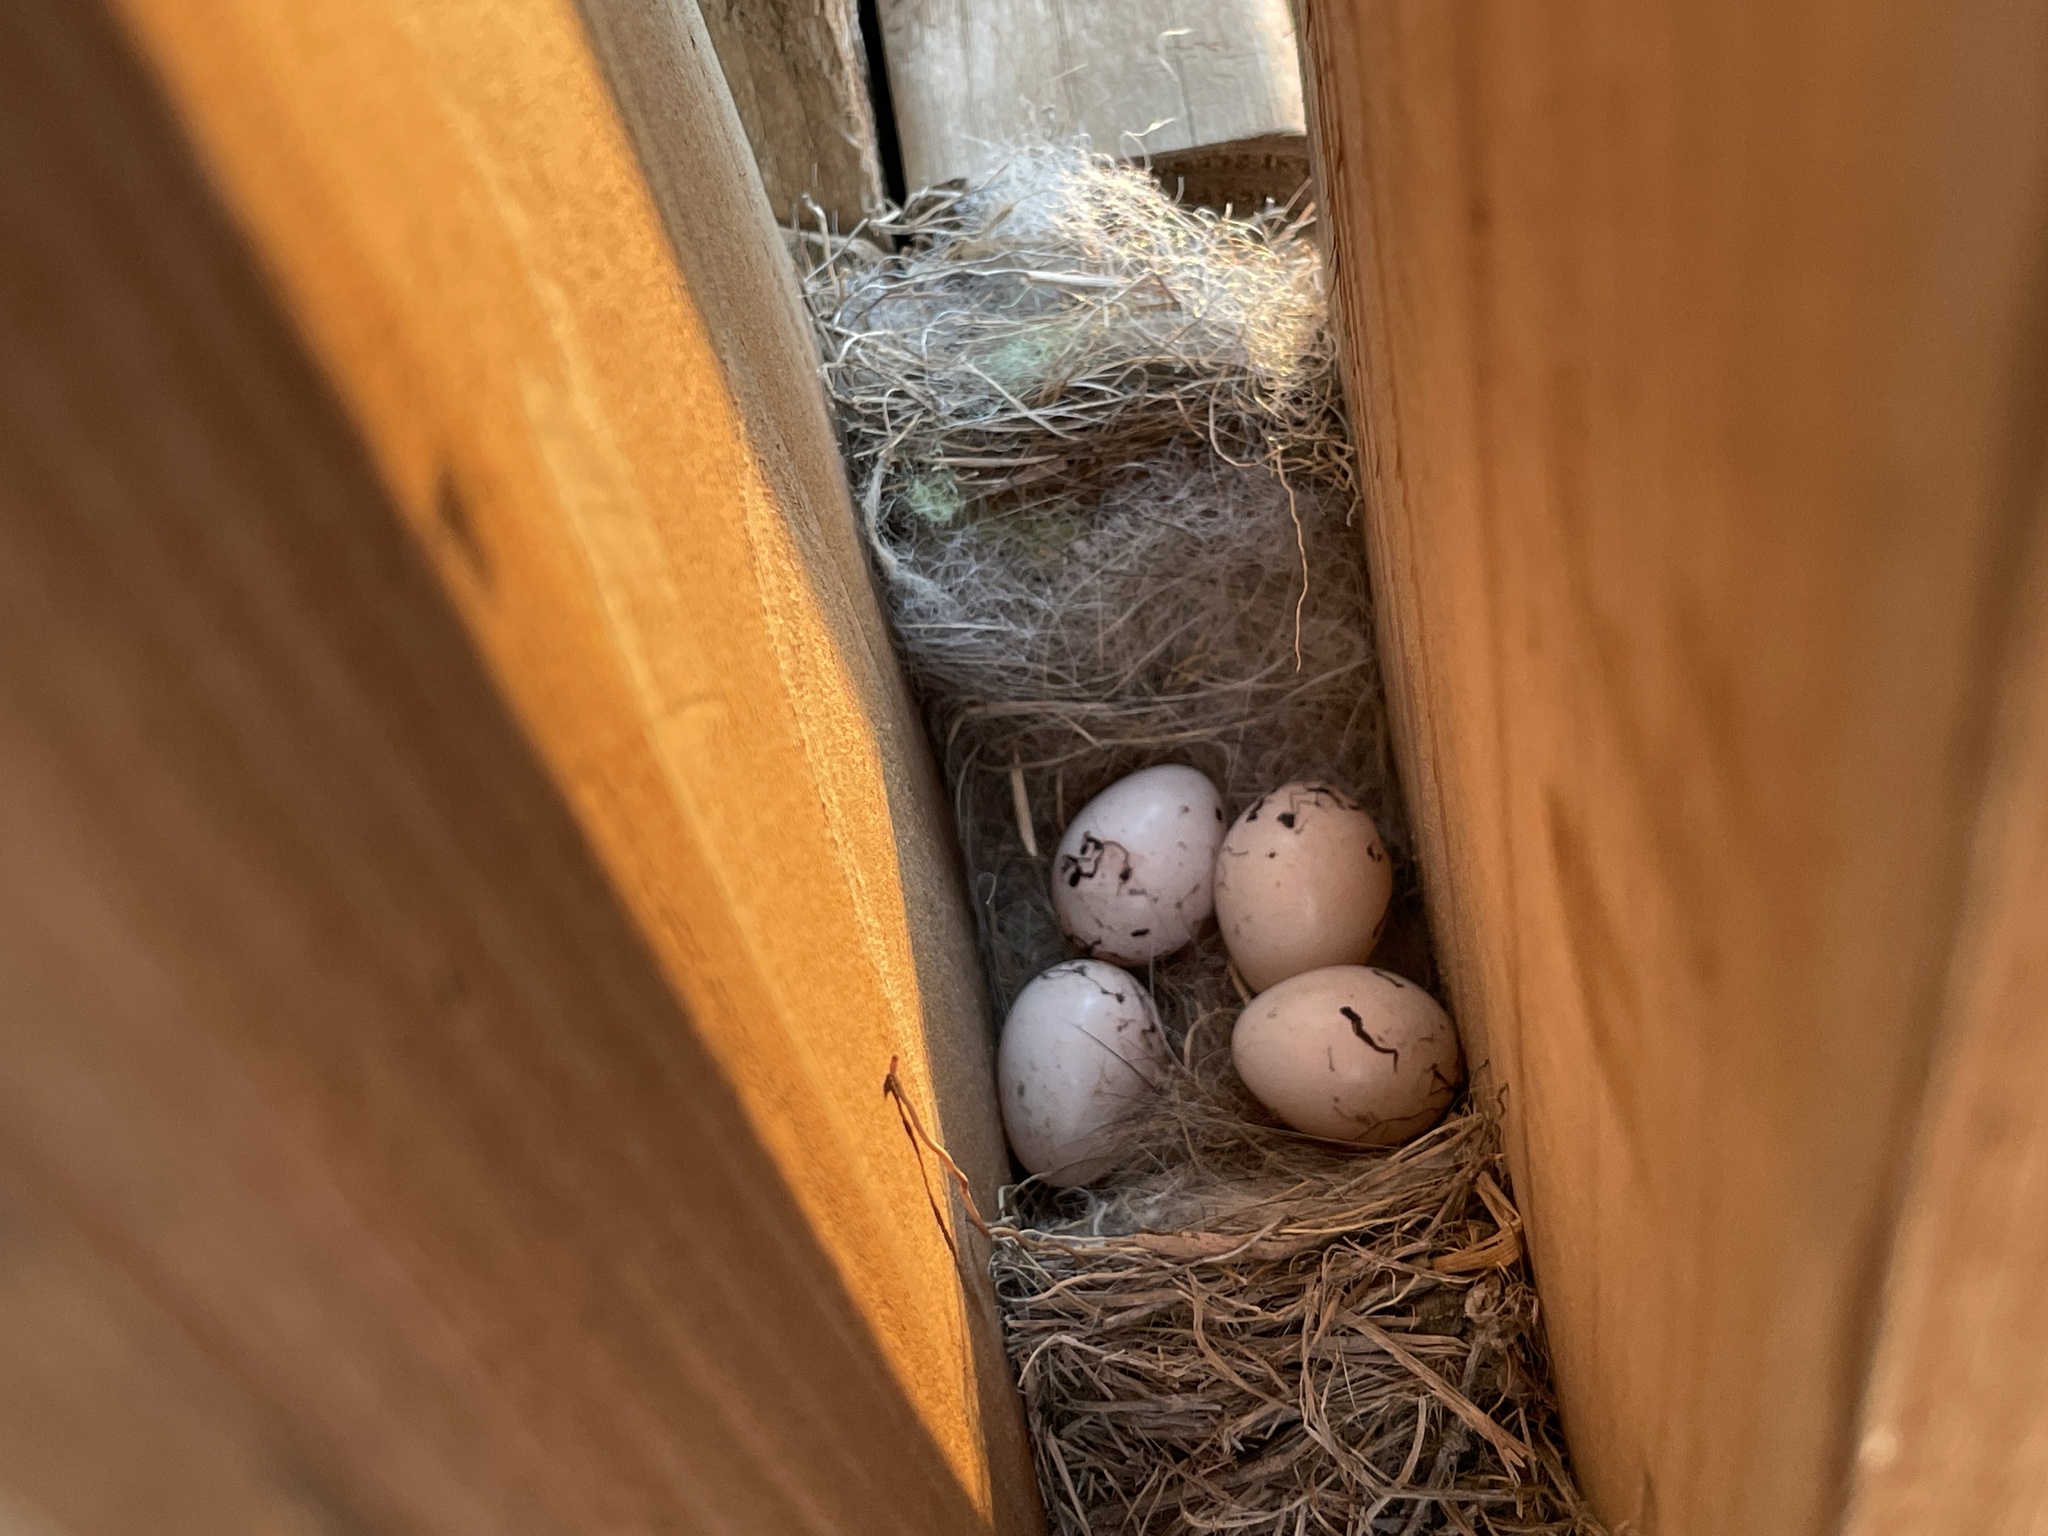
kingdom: Animalia
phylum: Chordata
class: Aves
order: Passeriformes
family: Passerellidae
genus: Chondestes
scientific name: Chondestes grammacus
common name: Lark sparrow
